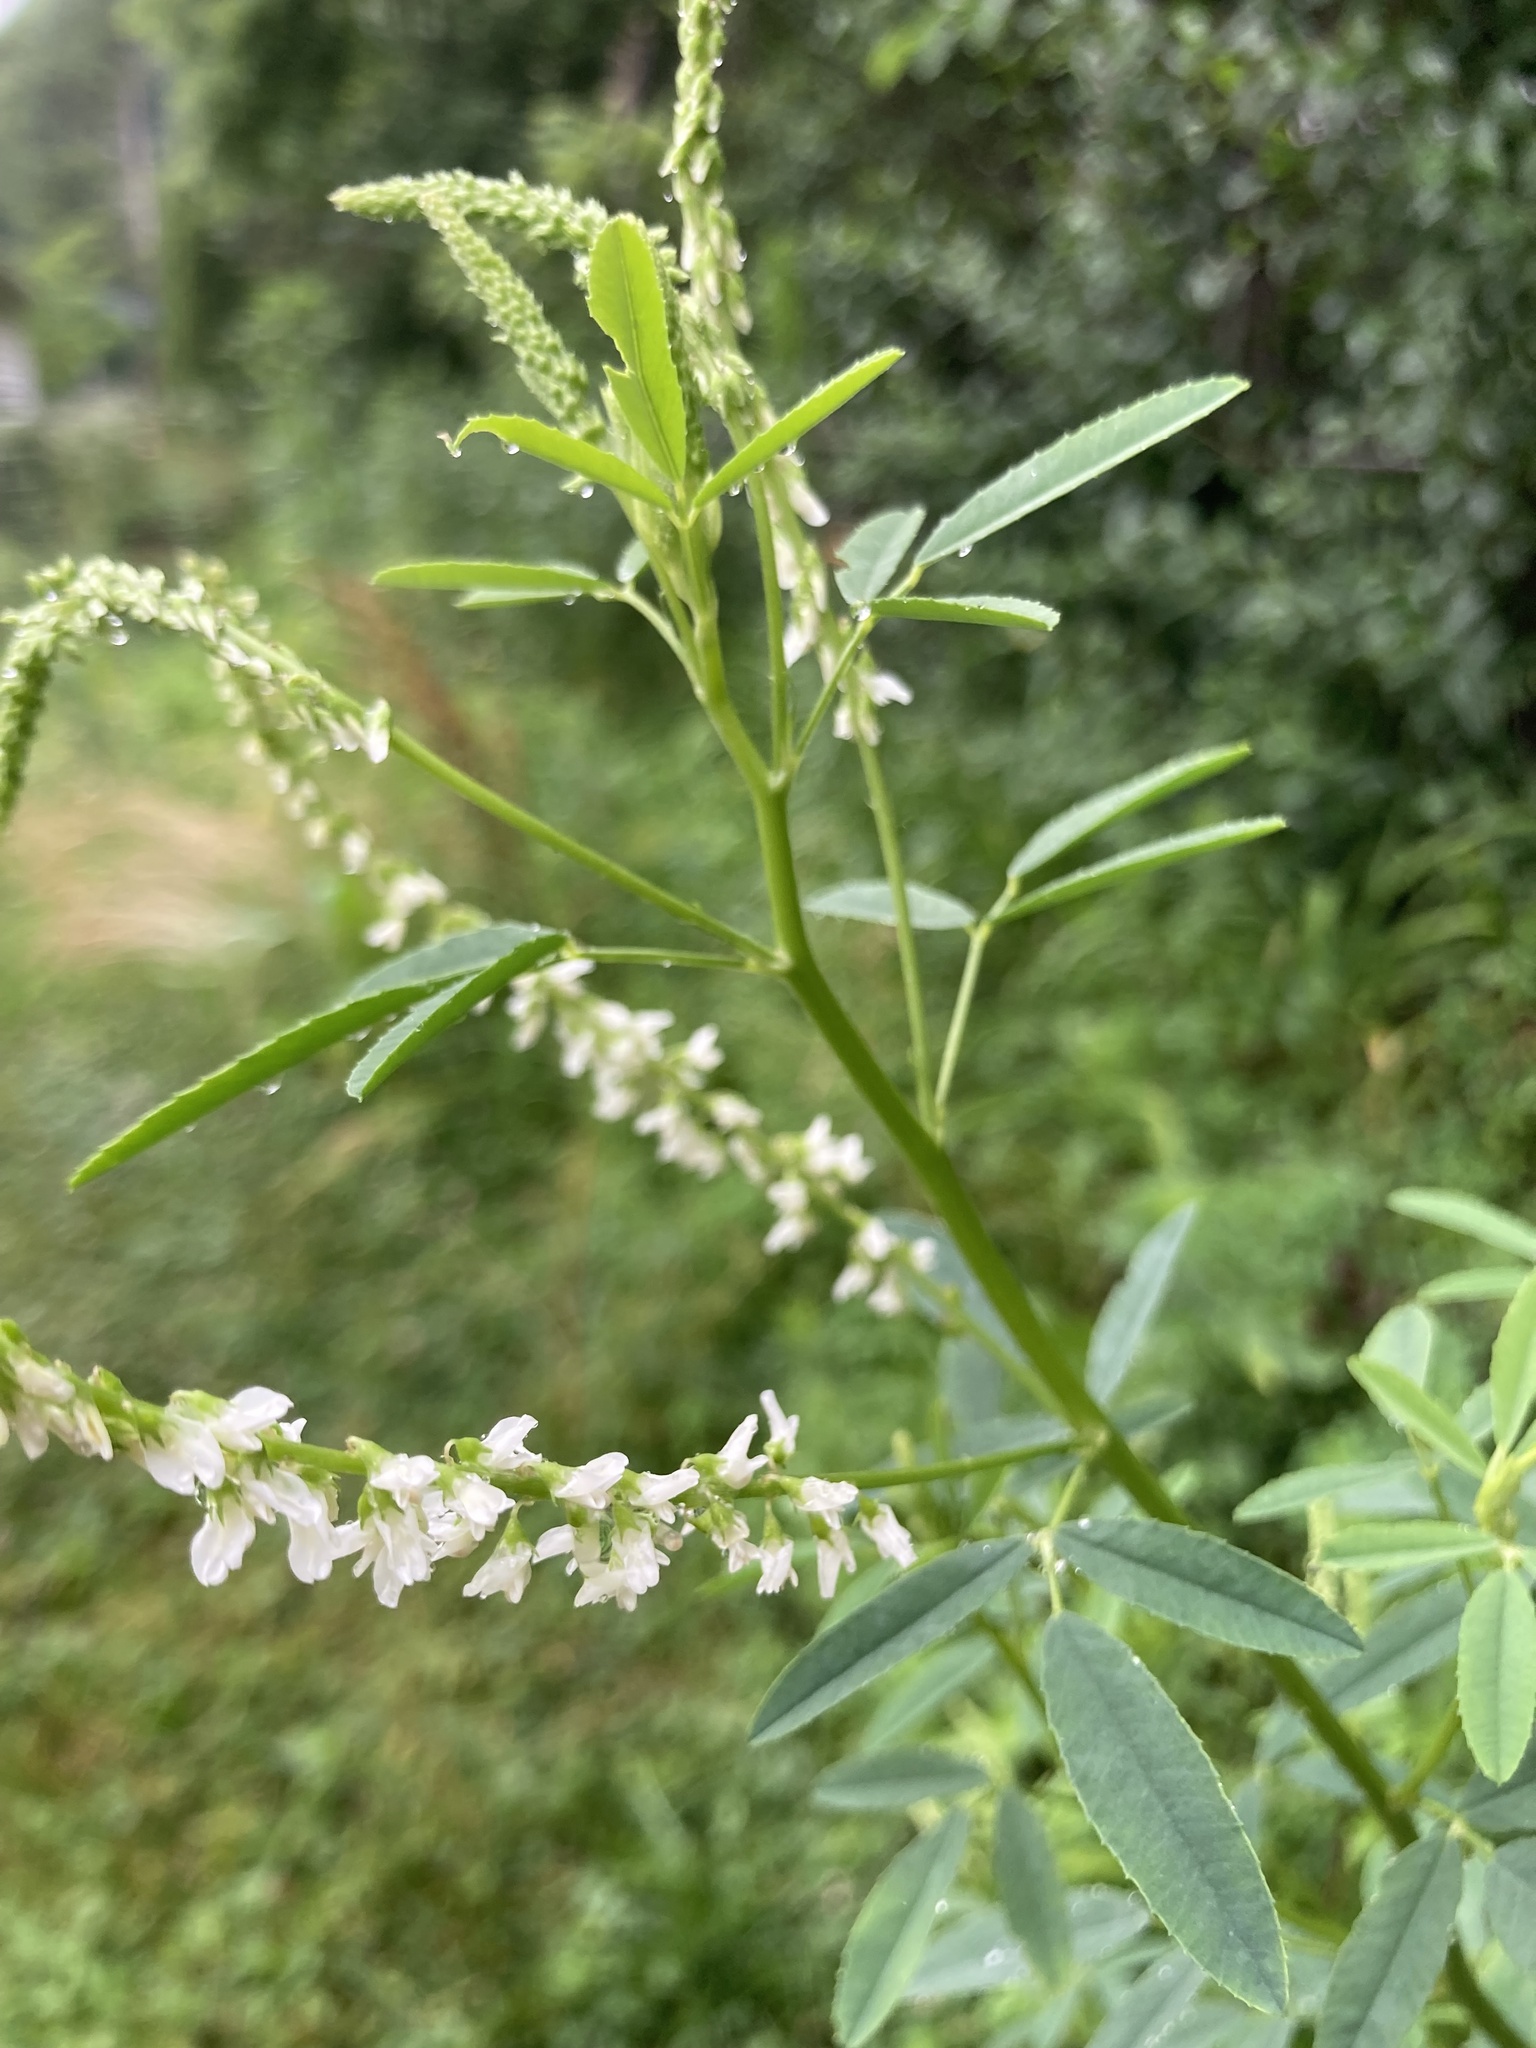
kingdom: Plantae
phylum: Tracheophyta
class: Magnoliopsida
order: Fabales
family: Fabaceae
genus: Melilotus
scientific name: Melilotus albus
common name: White melilot
